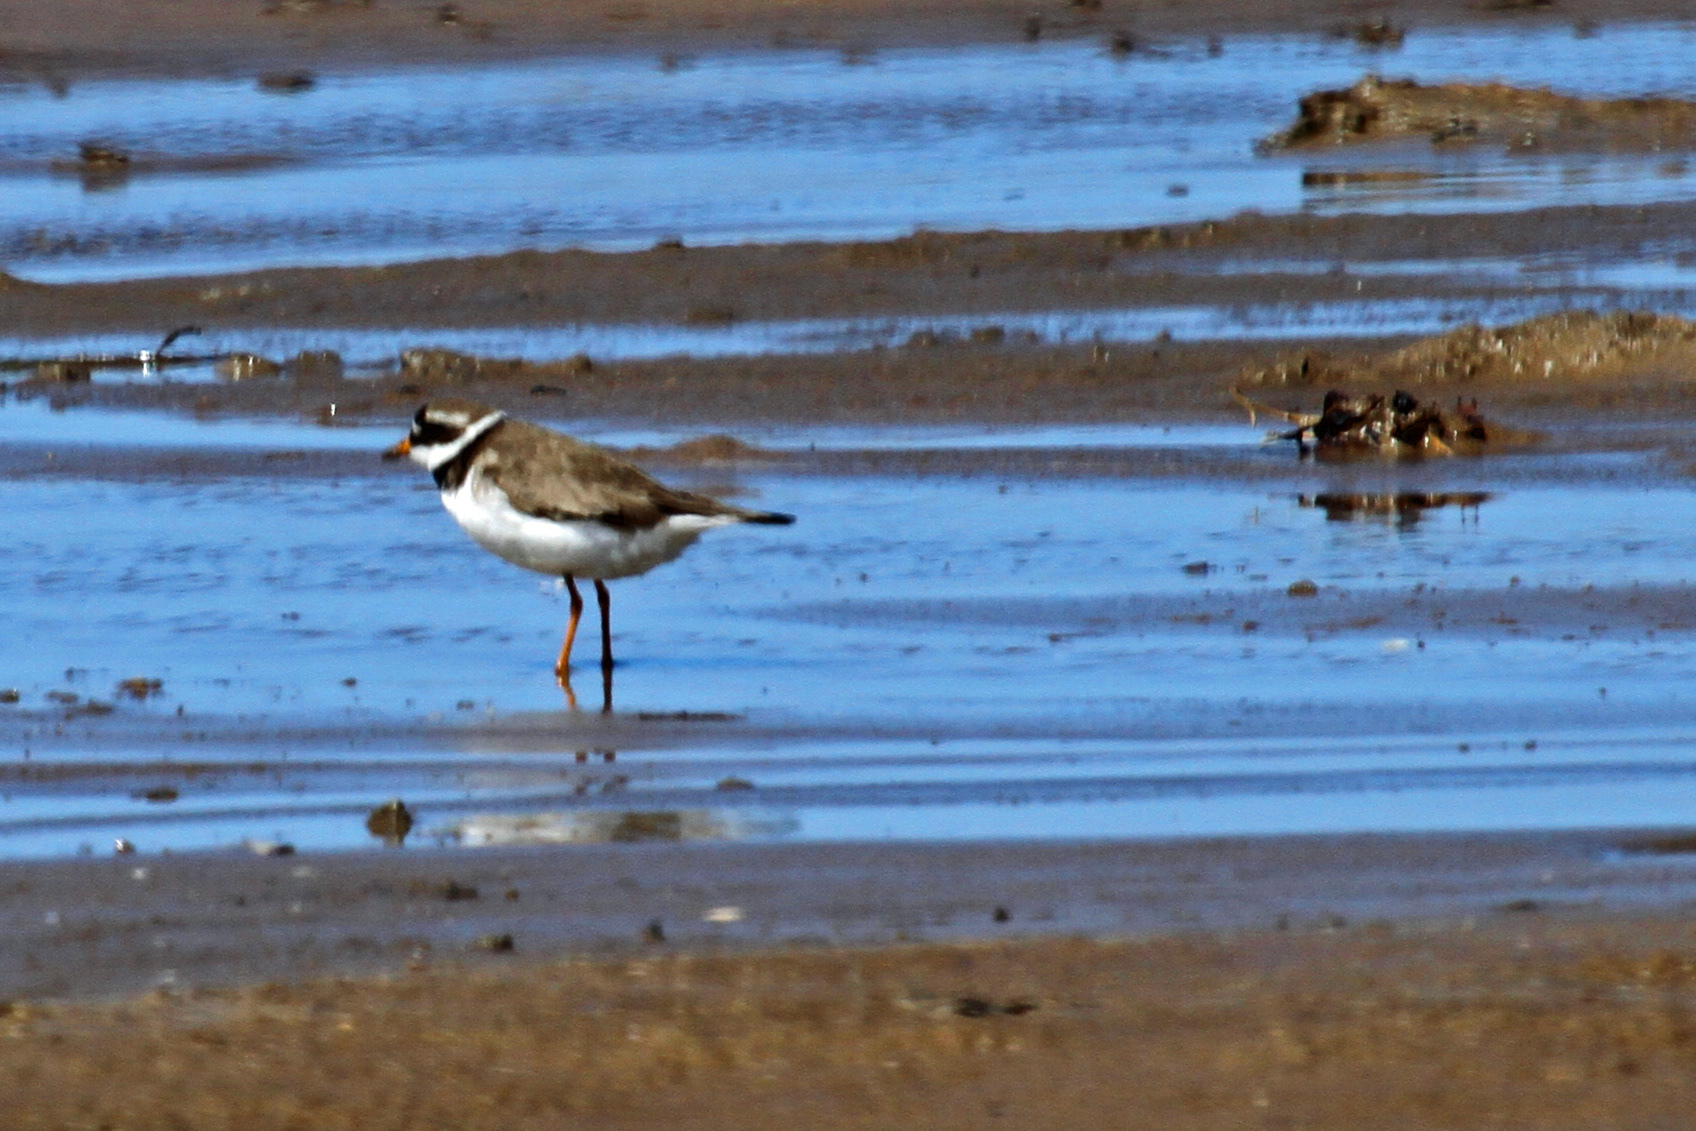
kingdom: Animalia
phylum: Chordata
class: Aves
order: Charadriiformes
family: Charadriidae
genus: Charadrius
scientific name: Charadrius hiaticula
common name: Common ringed plover
